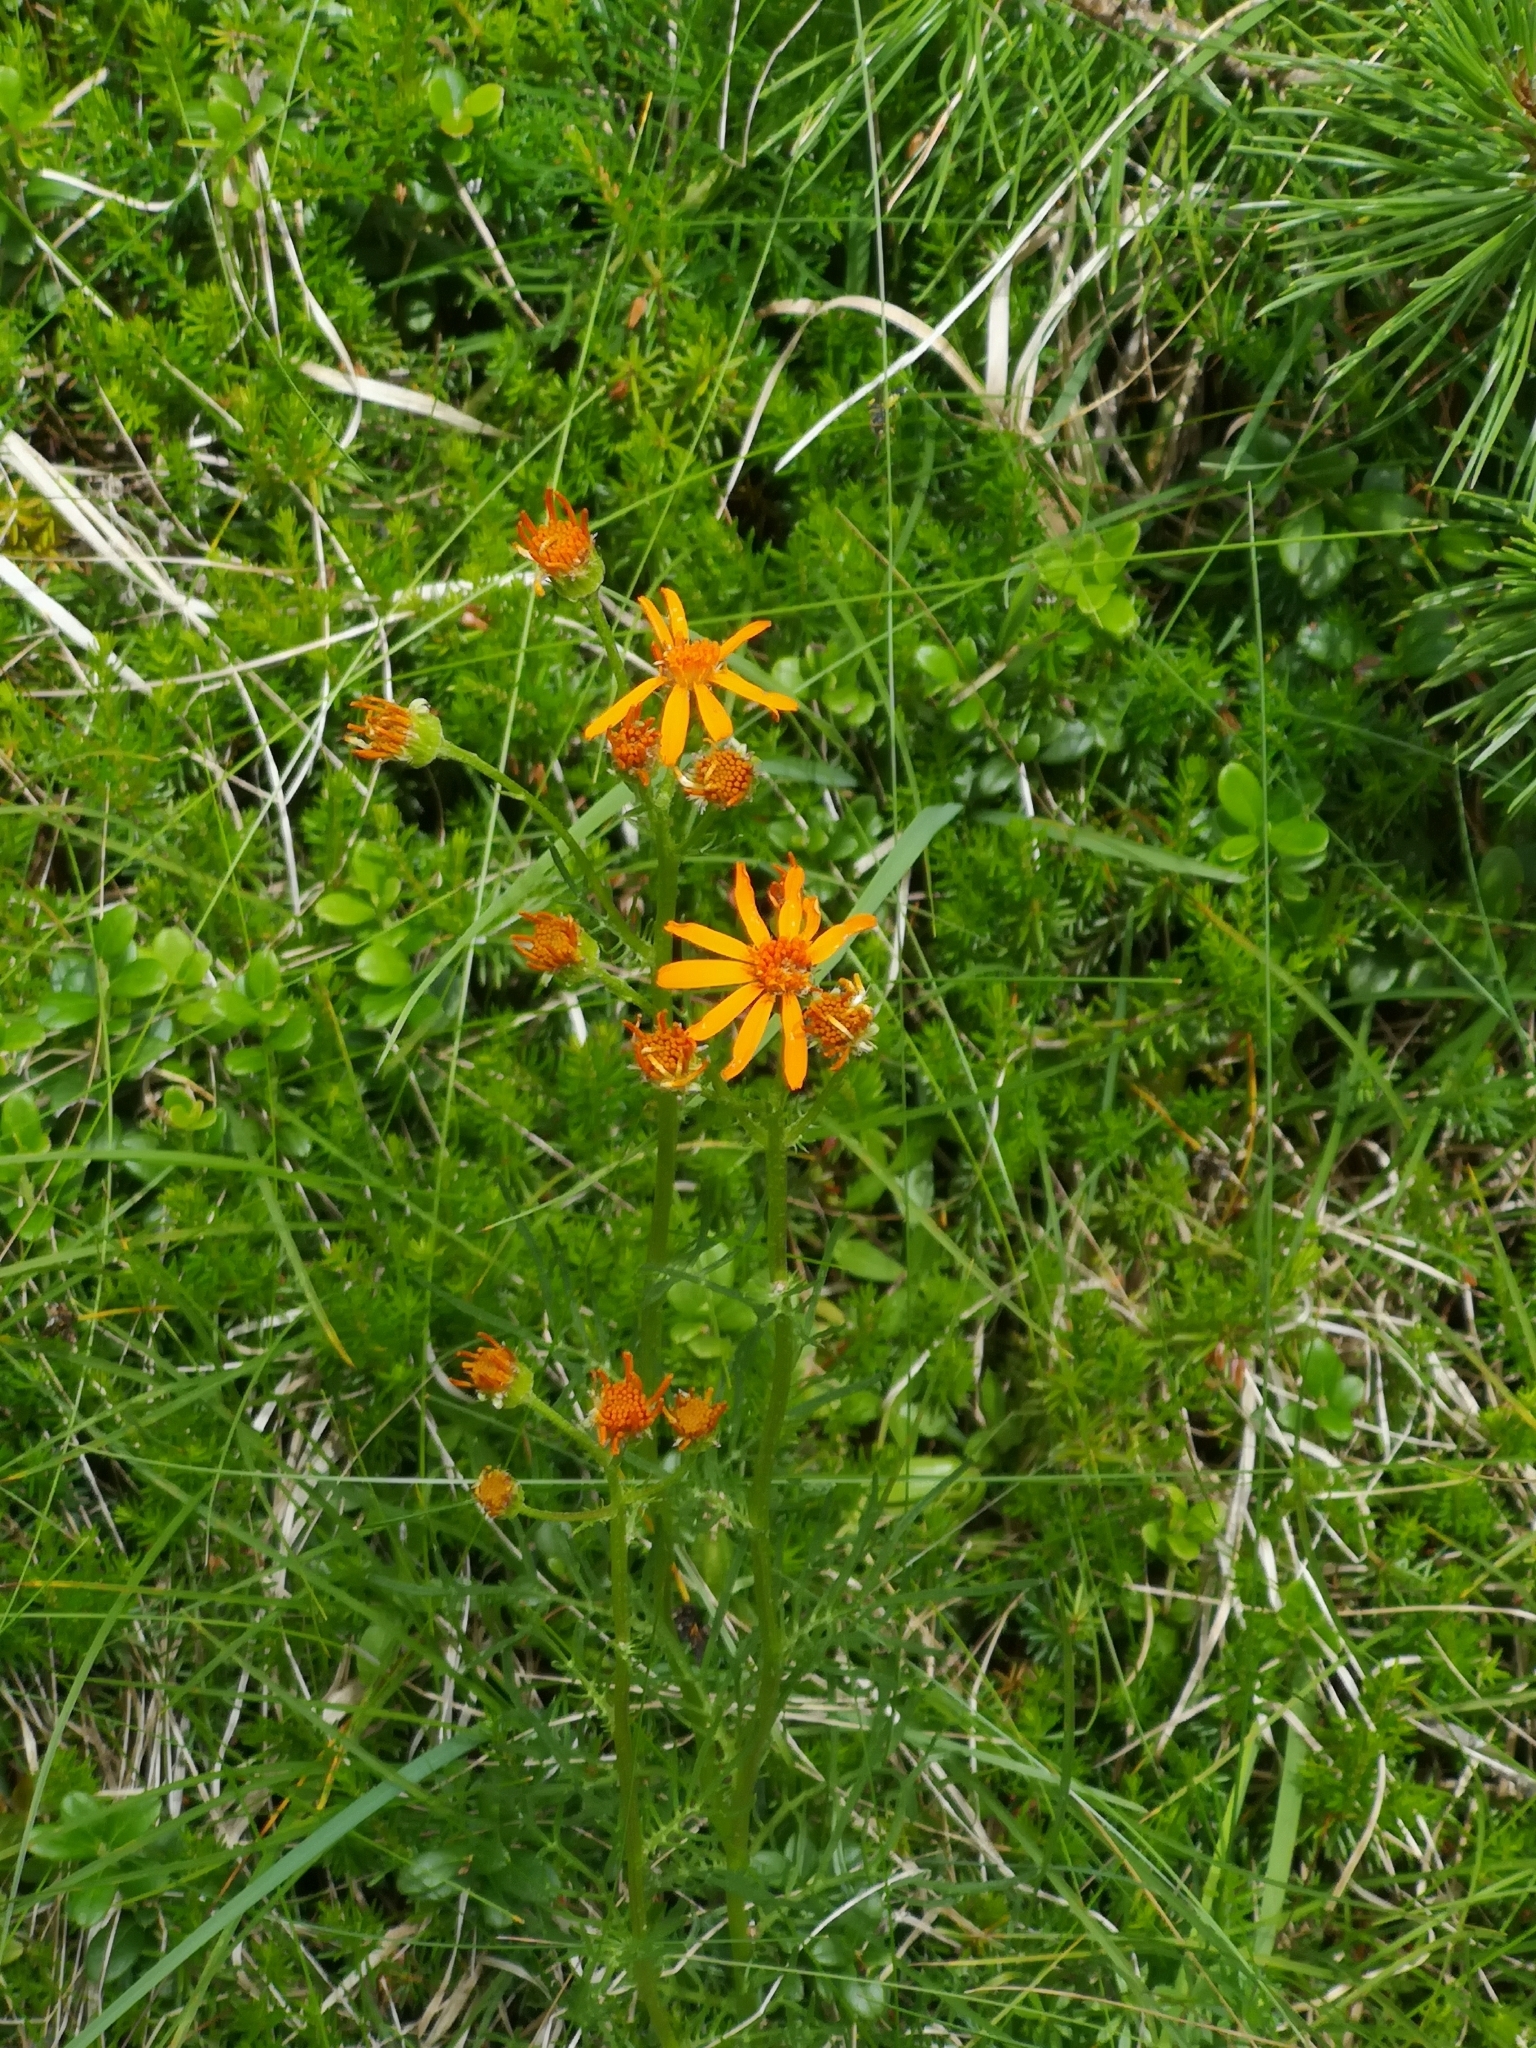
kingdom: Plantae
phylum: Tracheophyta
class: Magnoliopsida
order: Asterales
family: Asteraceae
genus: Jacobaea
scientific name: Jacobaea abrotanifolia
